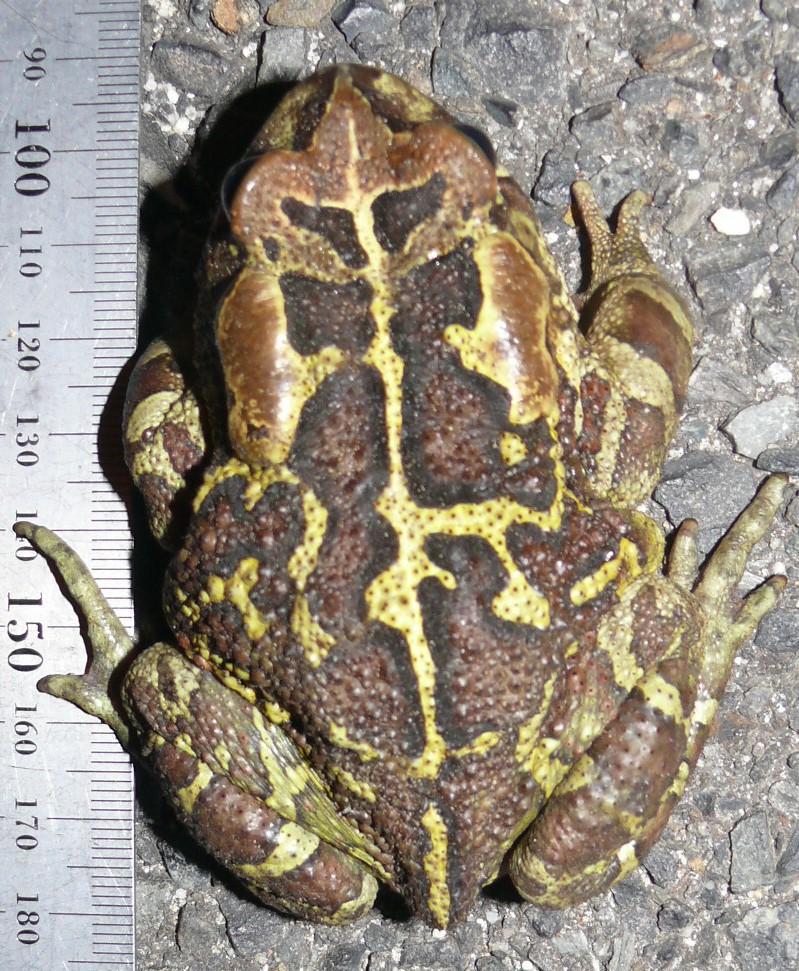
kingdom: Animalia
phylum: Chordata
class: Amphibia
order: Anura
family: Bufonidae
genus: Sclerophrys
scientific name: Sclerophrys pantherina
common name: Panther toad
